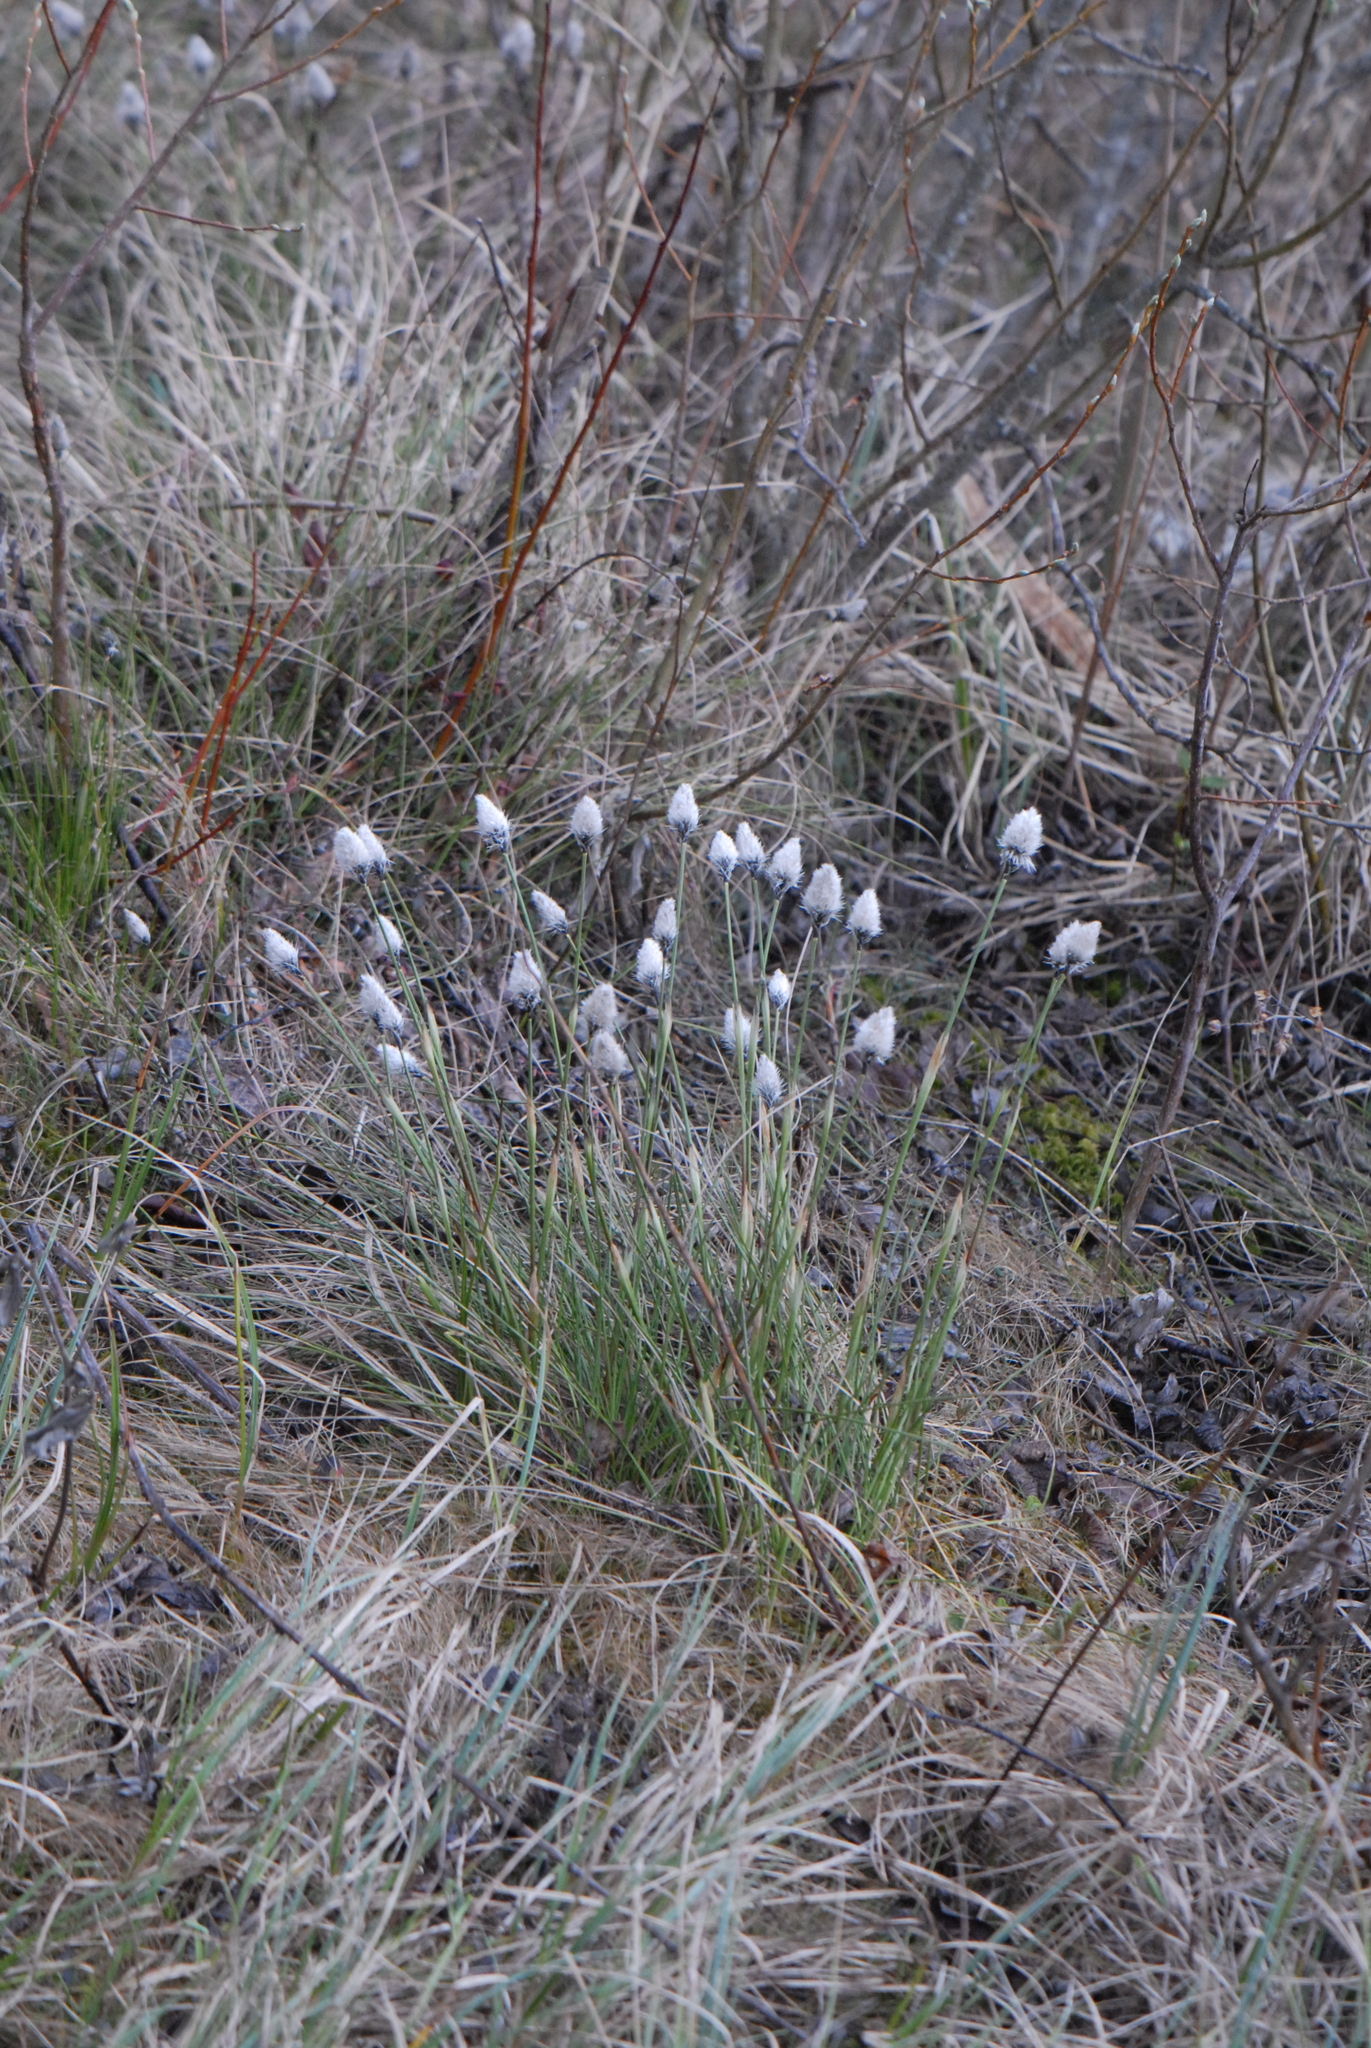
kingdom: Plantae
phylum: Tracheophyta
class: Liliopsida
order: Poales
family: Cyperaceae
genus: Eriophorum
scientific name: Eriophorum vaginatum
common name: Hare's-tail cottongrass
